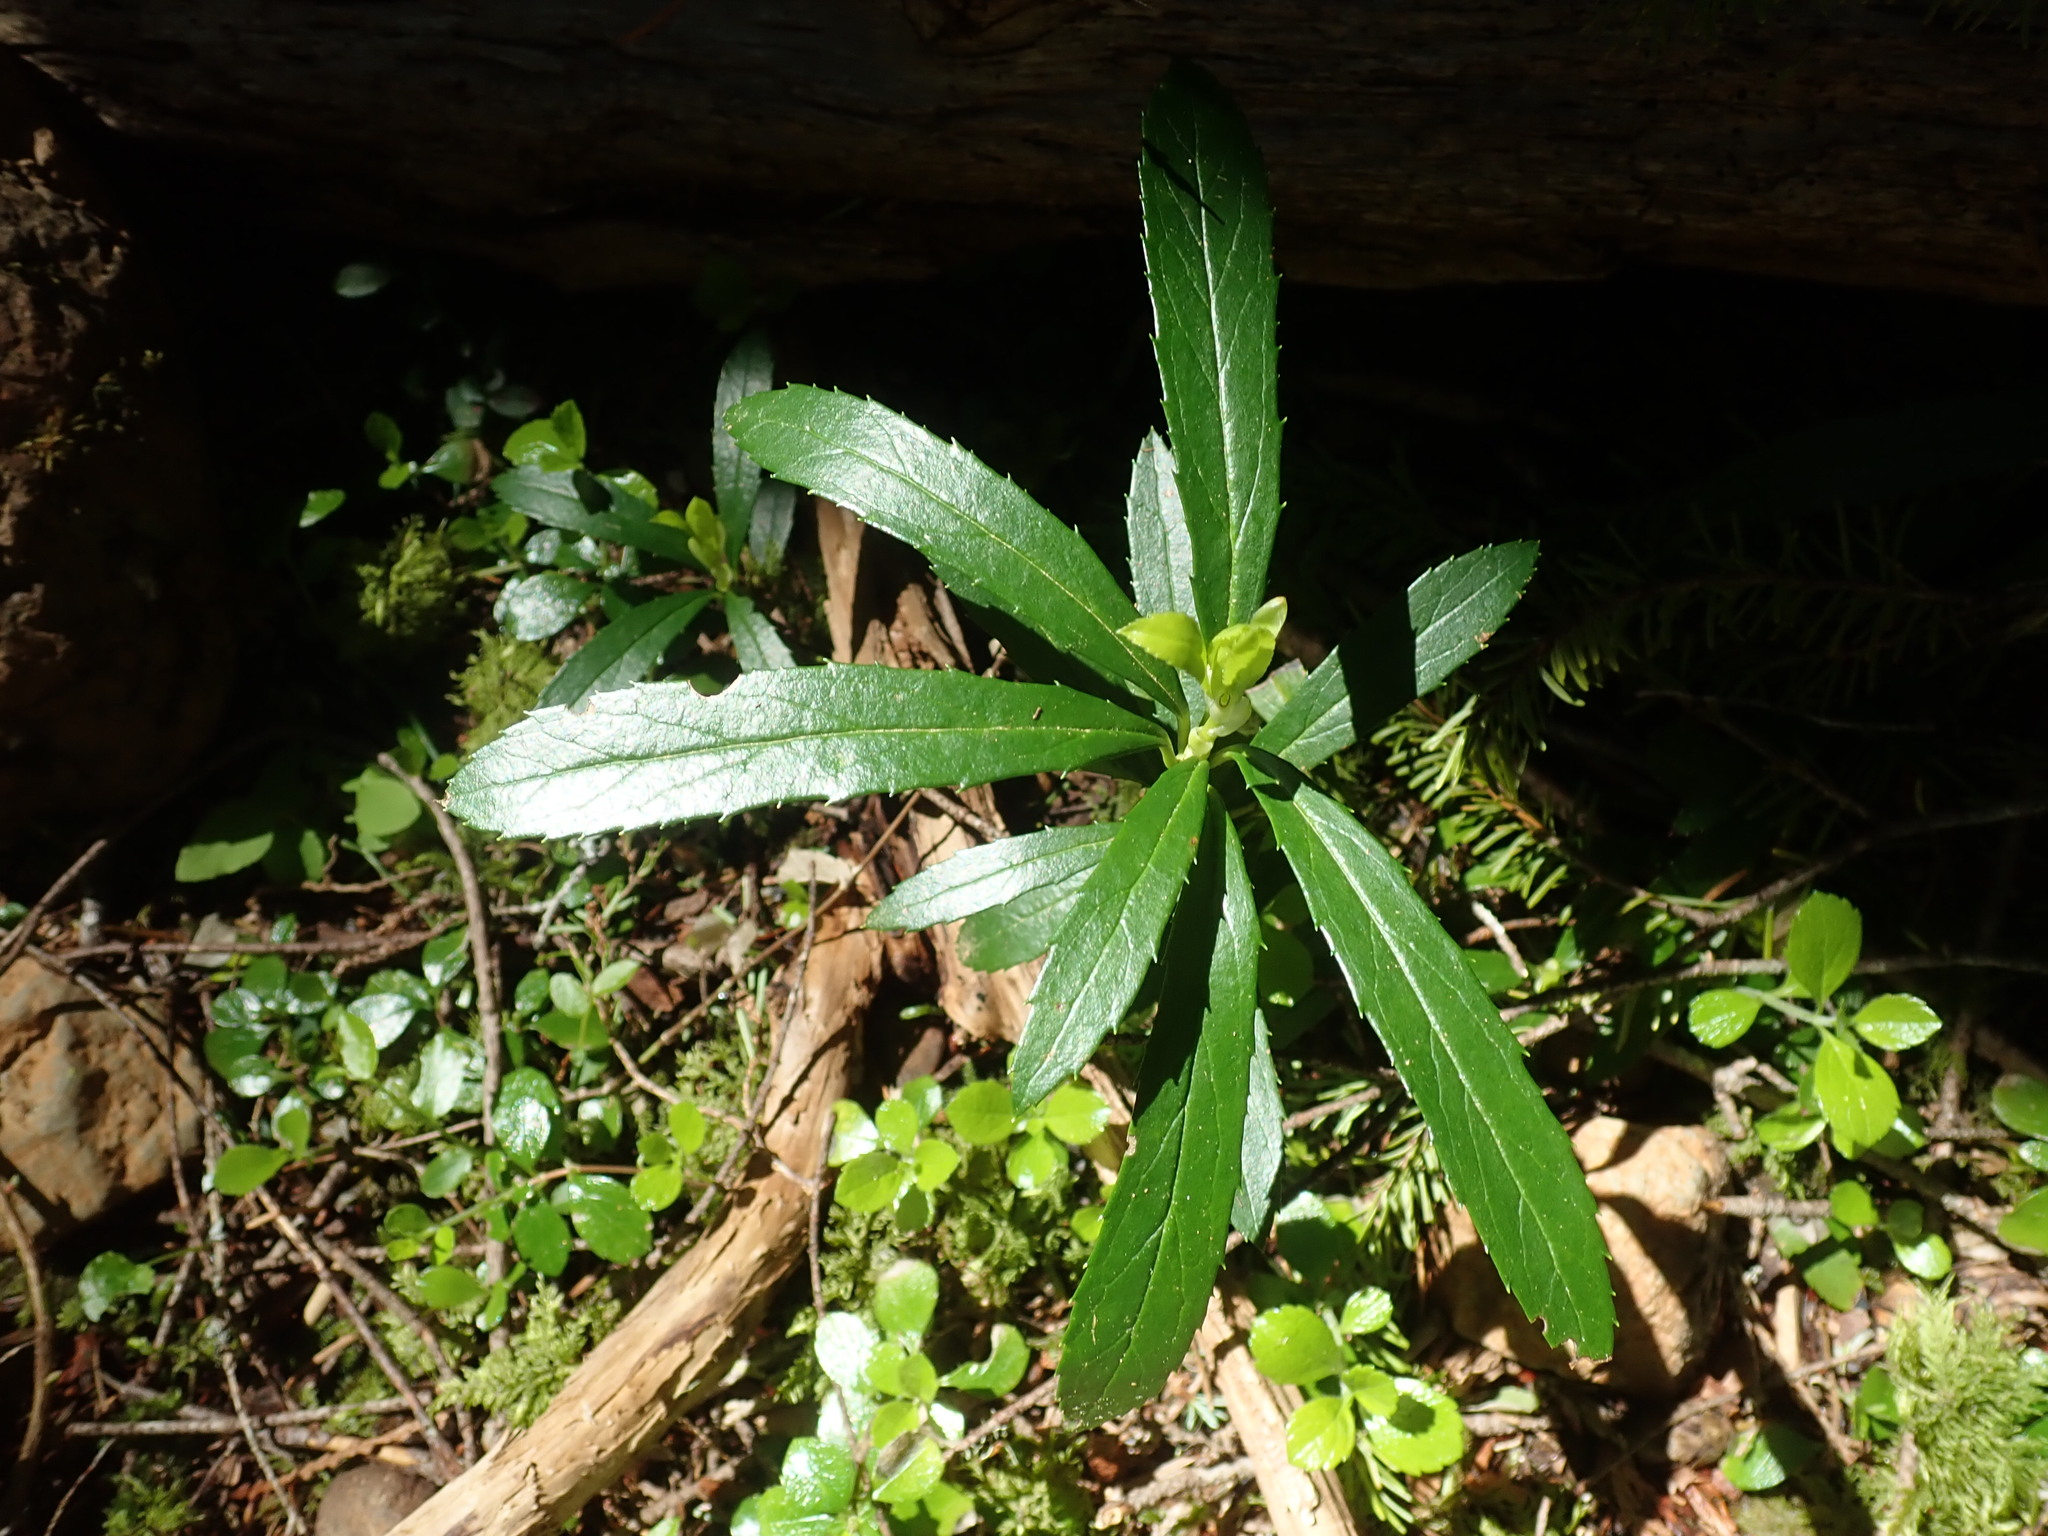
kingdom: Plantae
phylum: Tracheophyta
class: Magnoliopsida
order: Ericales
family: Ericaceae
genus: Chimaphila
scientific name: Chimaphila umbellata
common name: Pipsissewa
